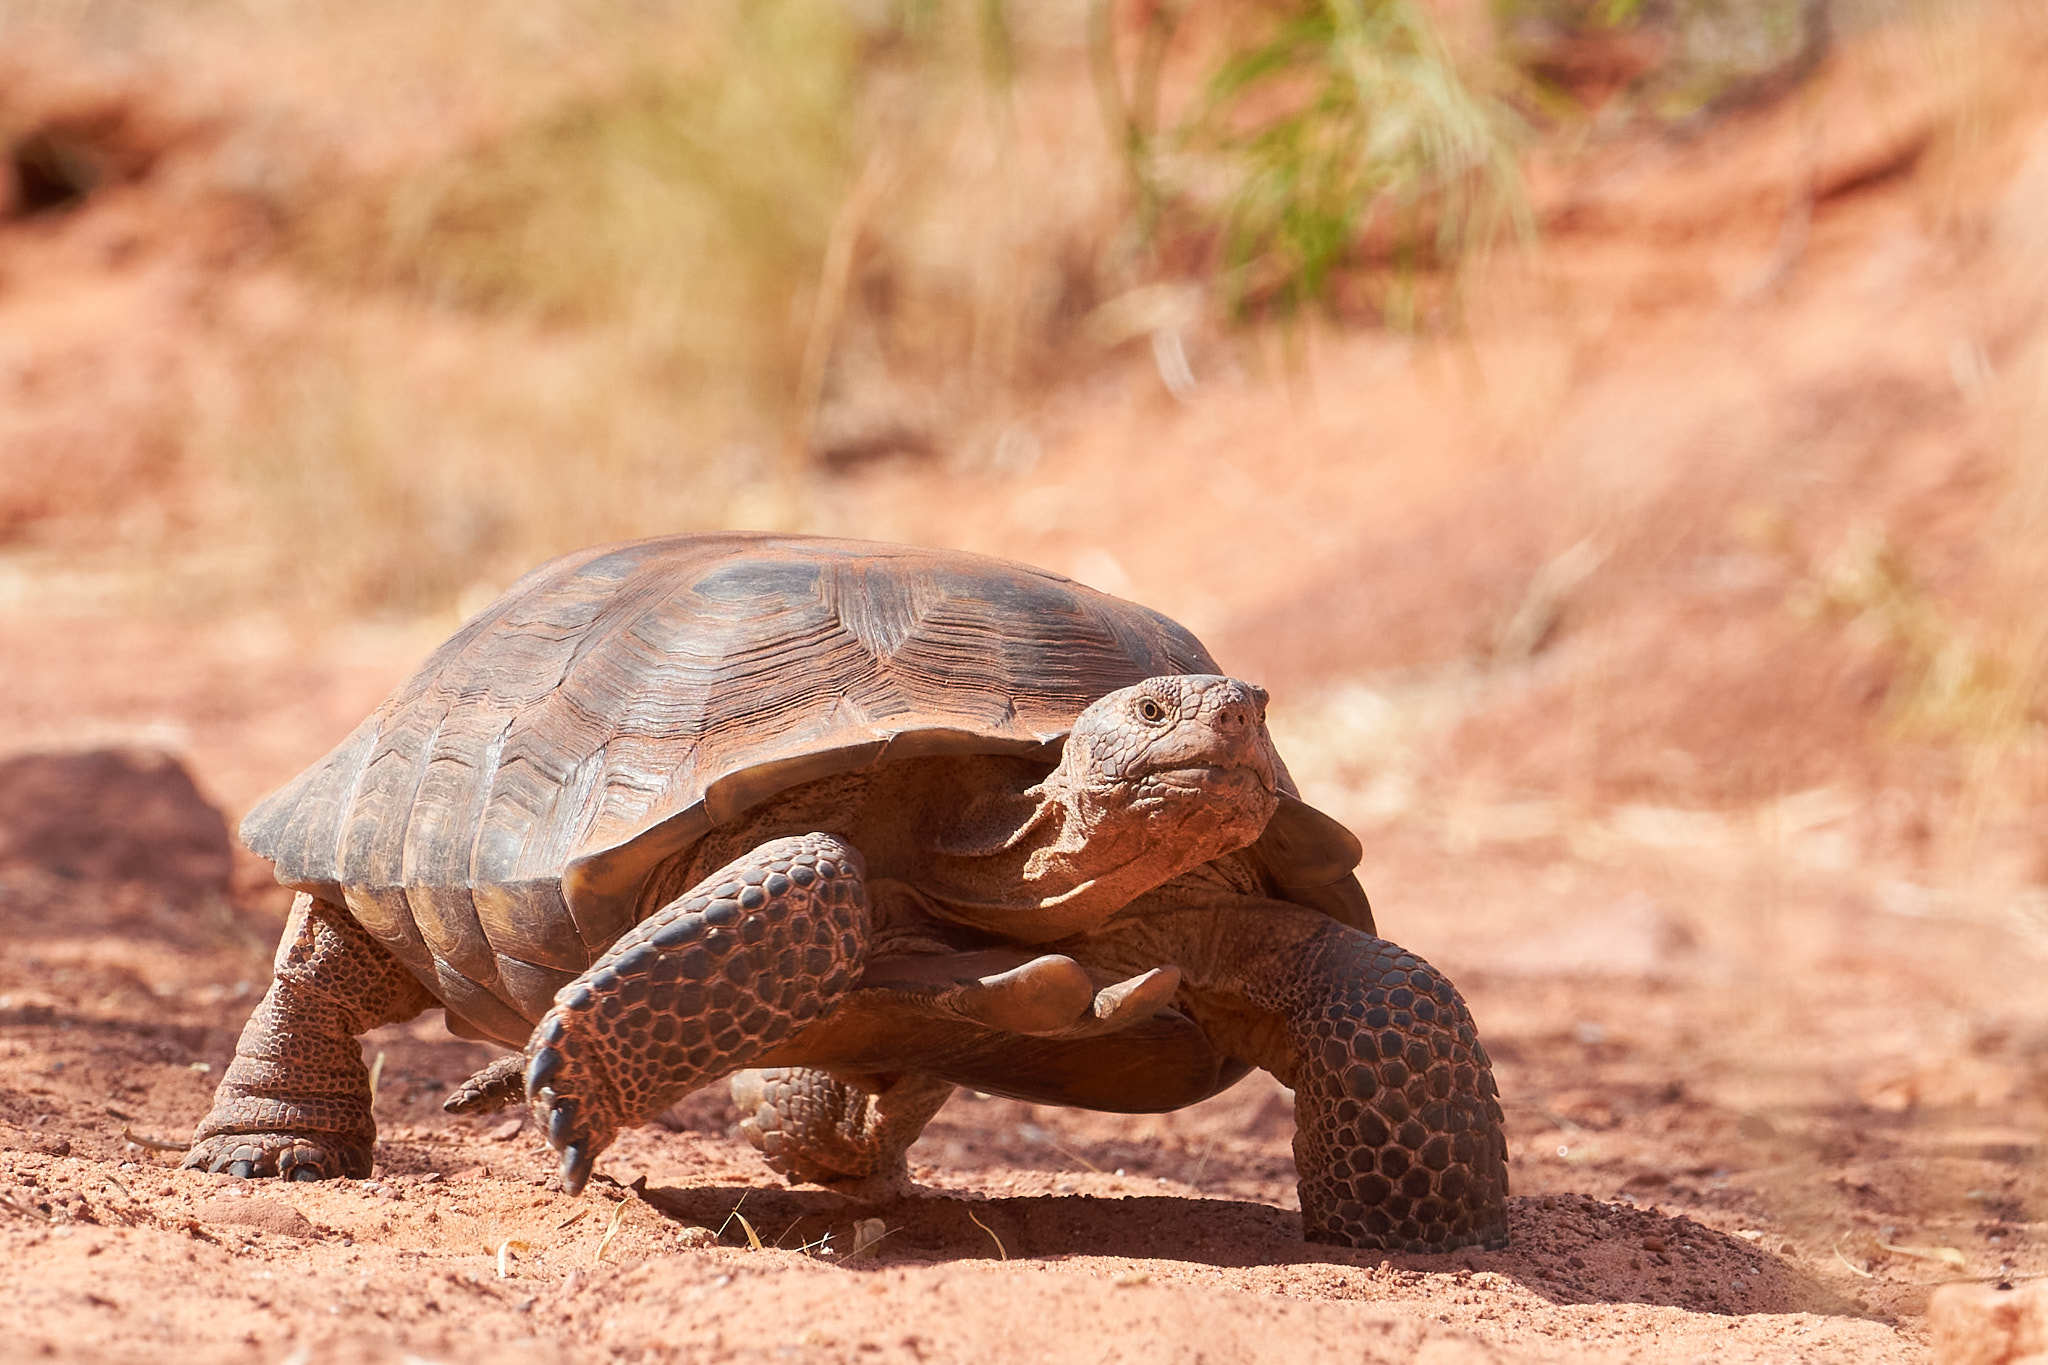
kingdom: Animalia
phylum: Chordata
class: Testudines
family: Testudinidae
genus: Gopherus
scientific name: Gopherus agassizii
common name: Mojave desert tortoise
